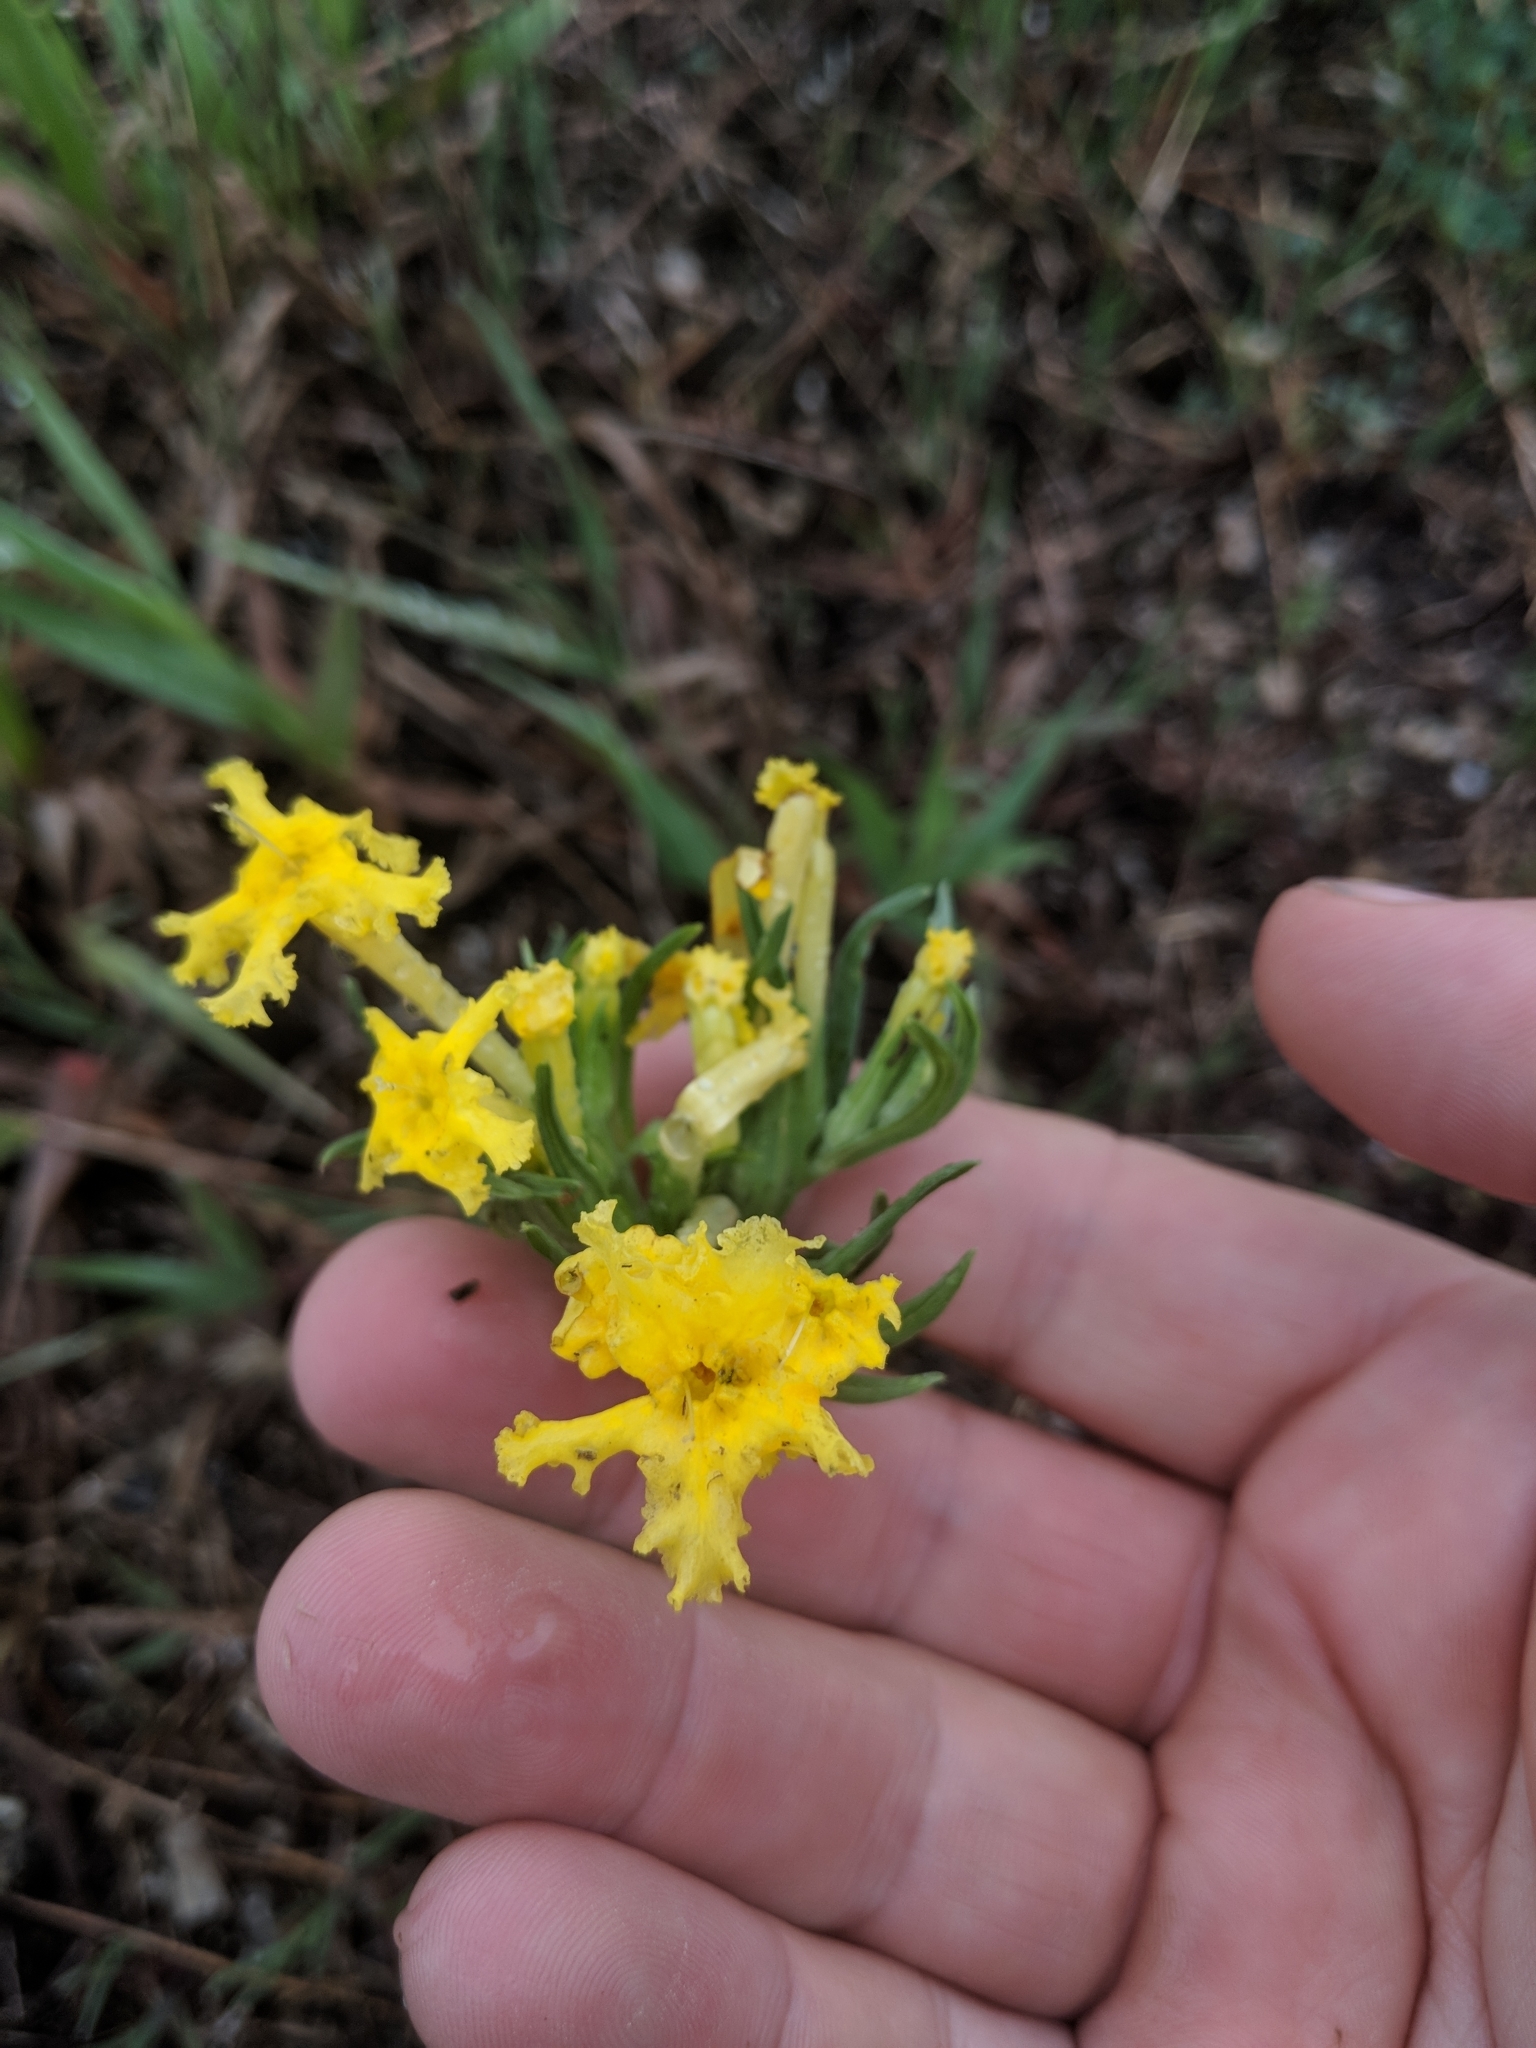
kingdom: Plantae
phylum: Tracheophyta
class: Magnoliopsida
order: Boraginales
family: Boraginaceae
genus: Lithospermum
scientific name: Lithospermum incisum
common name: Fringed gromwell
